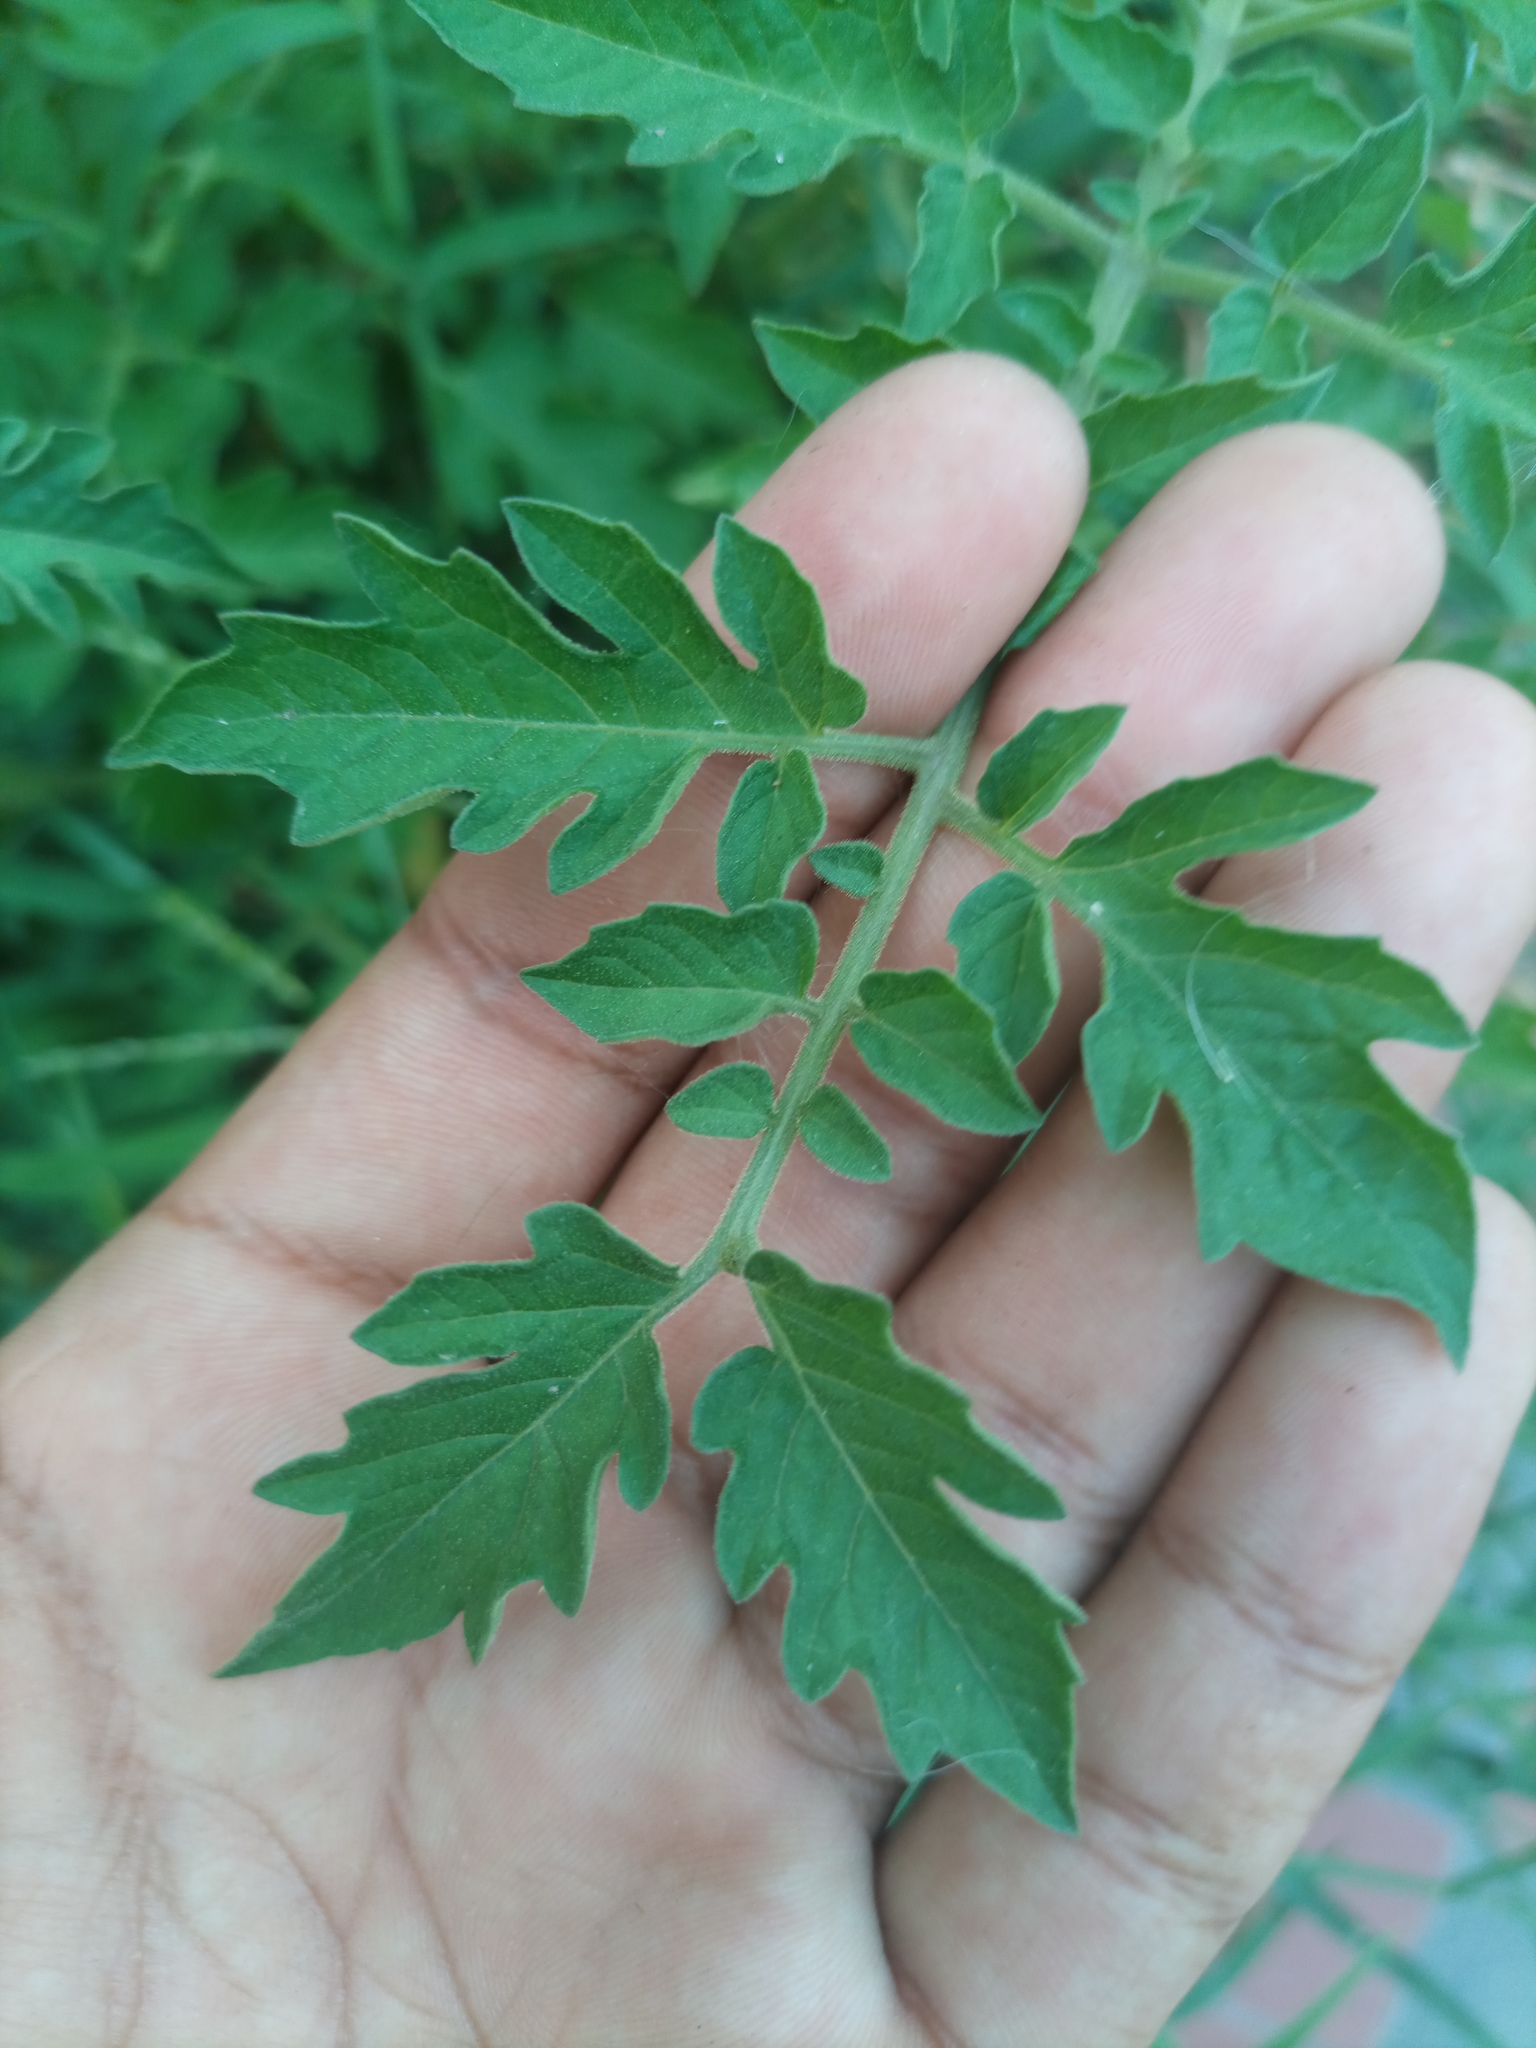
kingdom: Plantae
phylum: Tracheophyta
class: Magnoliopsida
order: Solanales
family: Solanaceae
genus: Solanum
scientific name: Solanum lycopersicum
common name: Garden tomato
